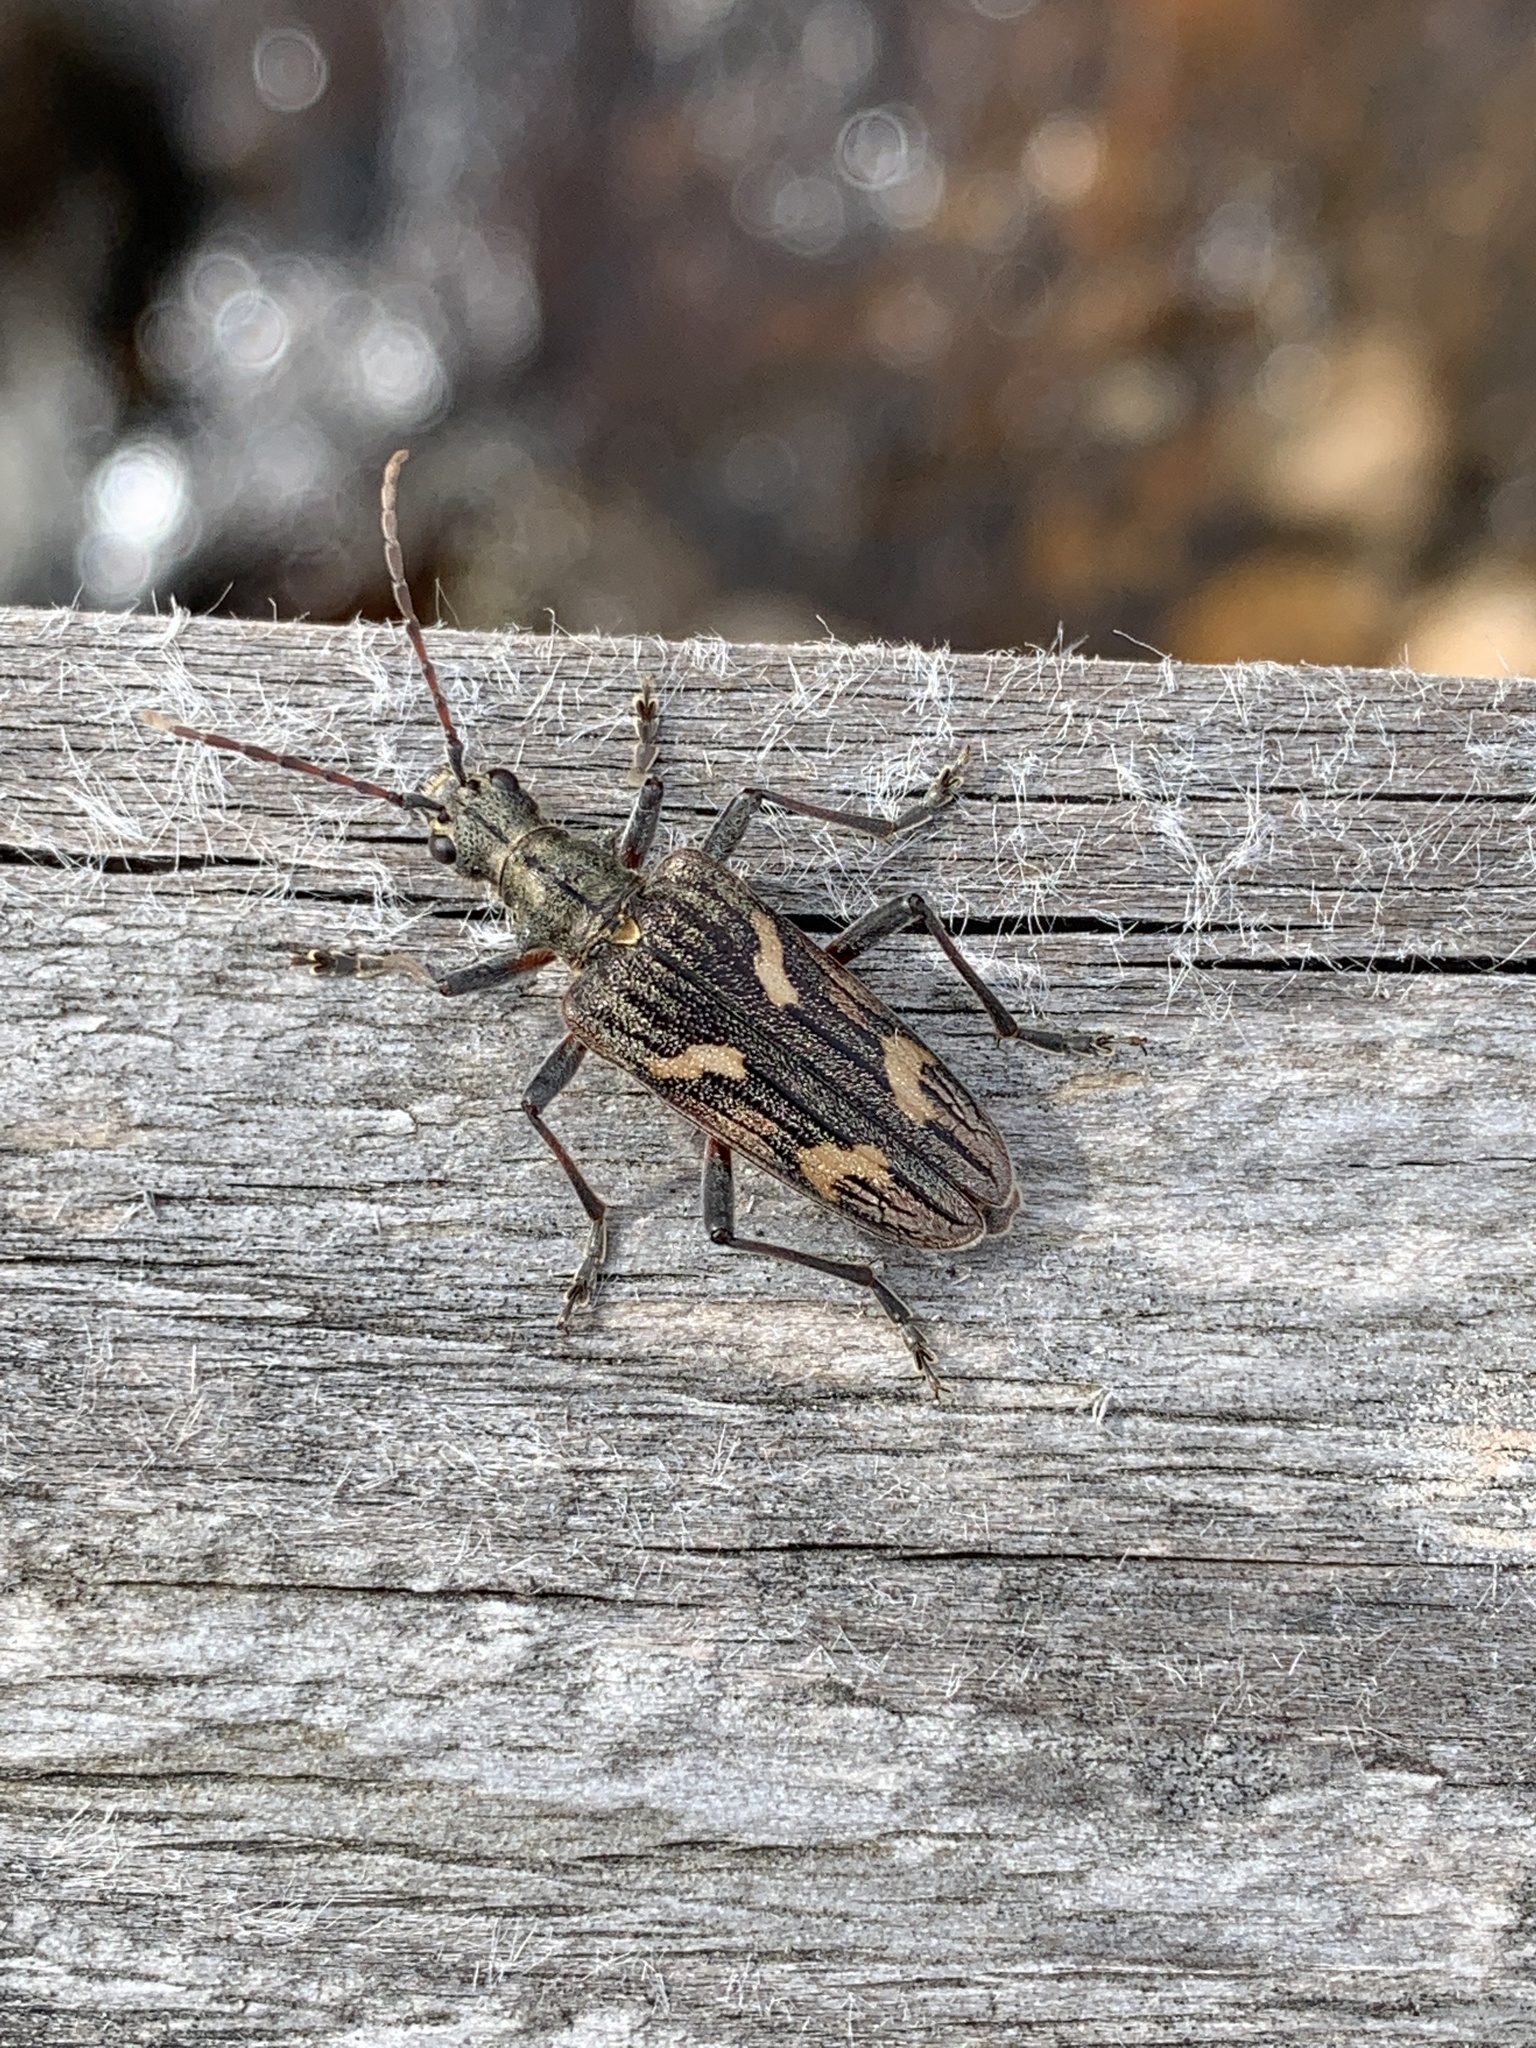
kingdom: Animalia
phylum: Arthropoda
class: Insecta
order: Coleoptera
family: Cerambycidae
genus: Rhagium
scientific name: Rhagium bifasciatum
